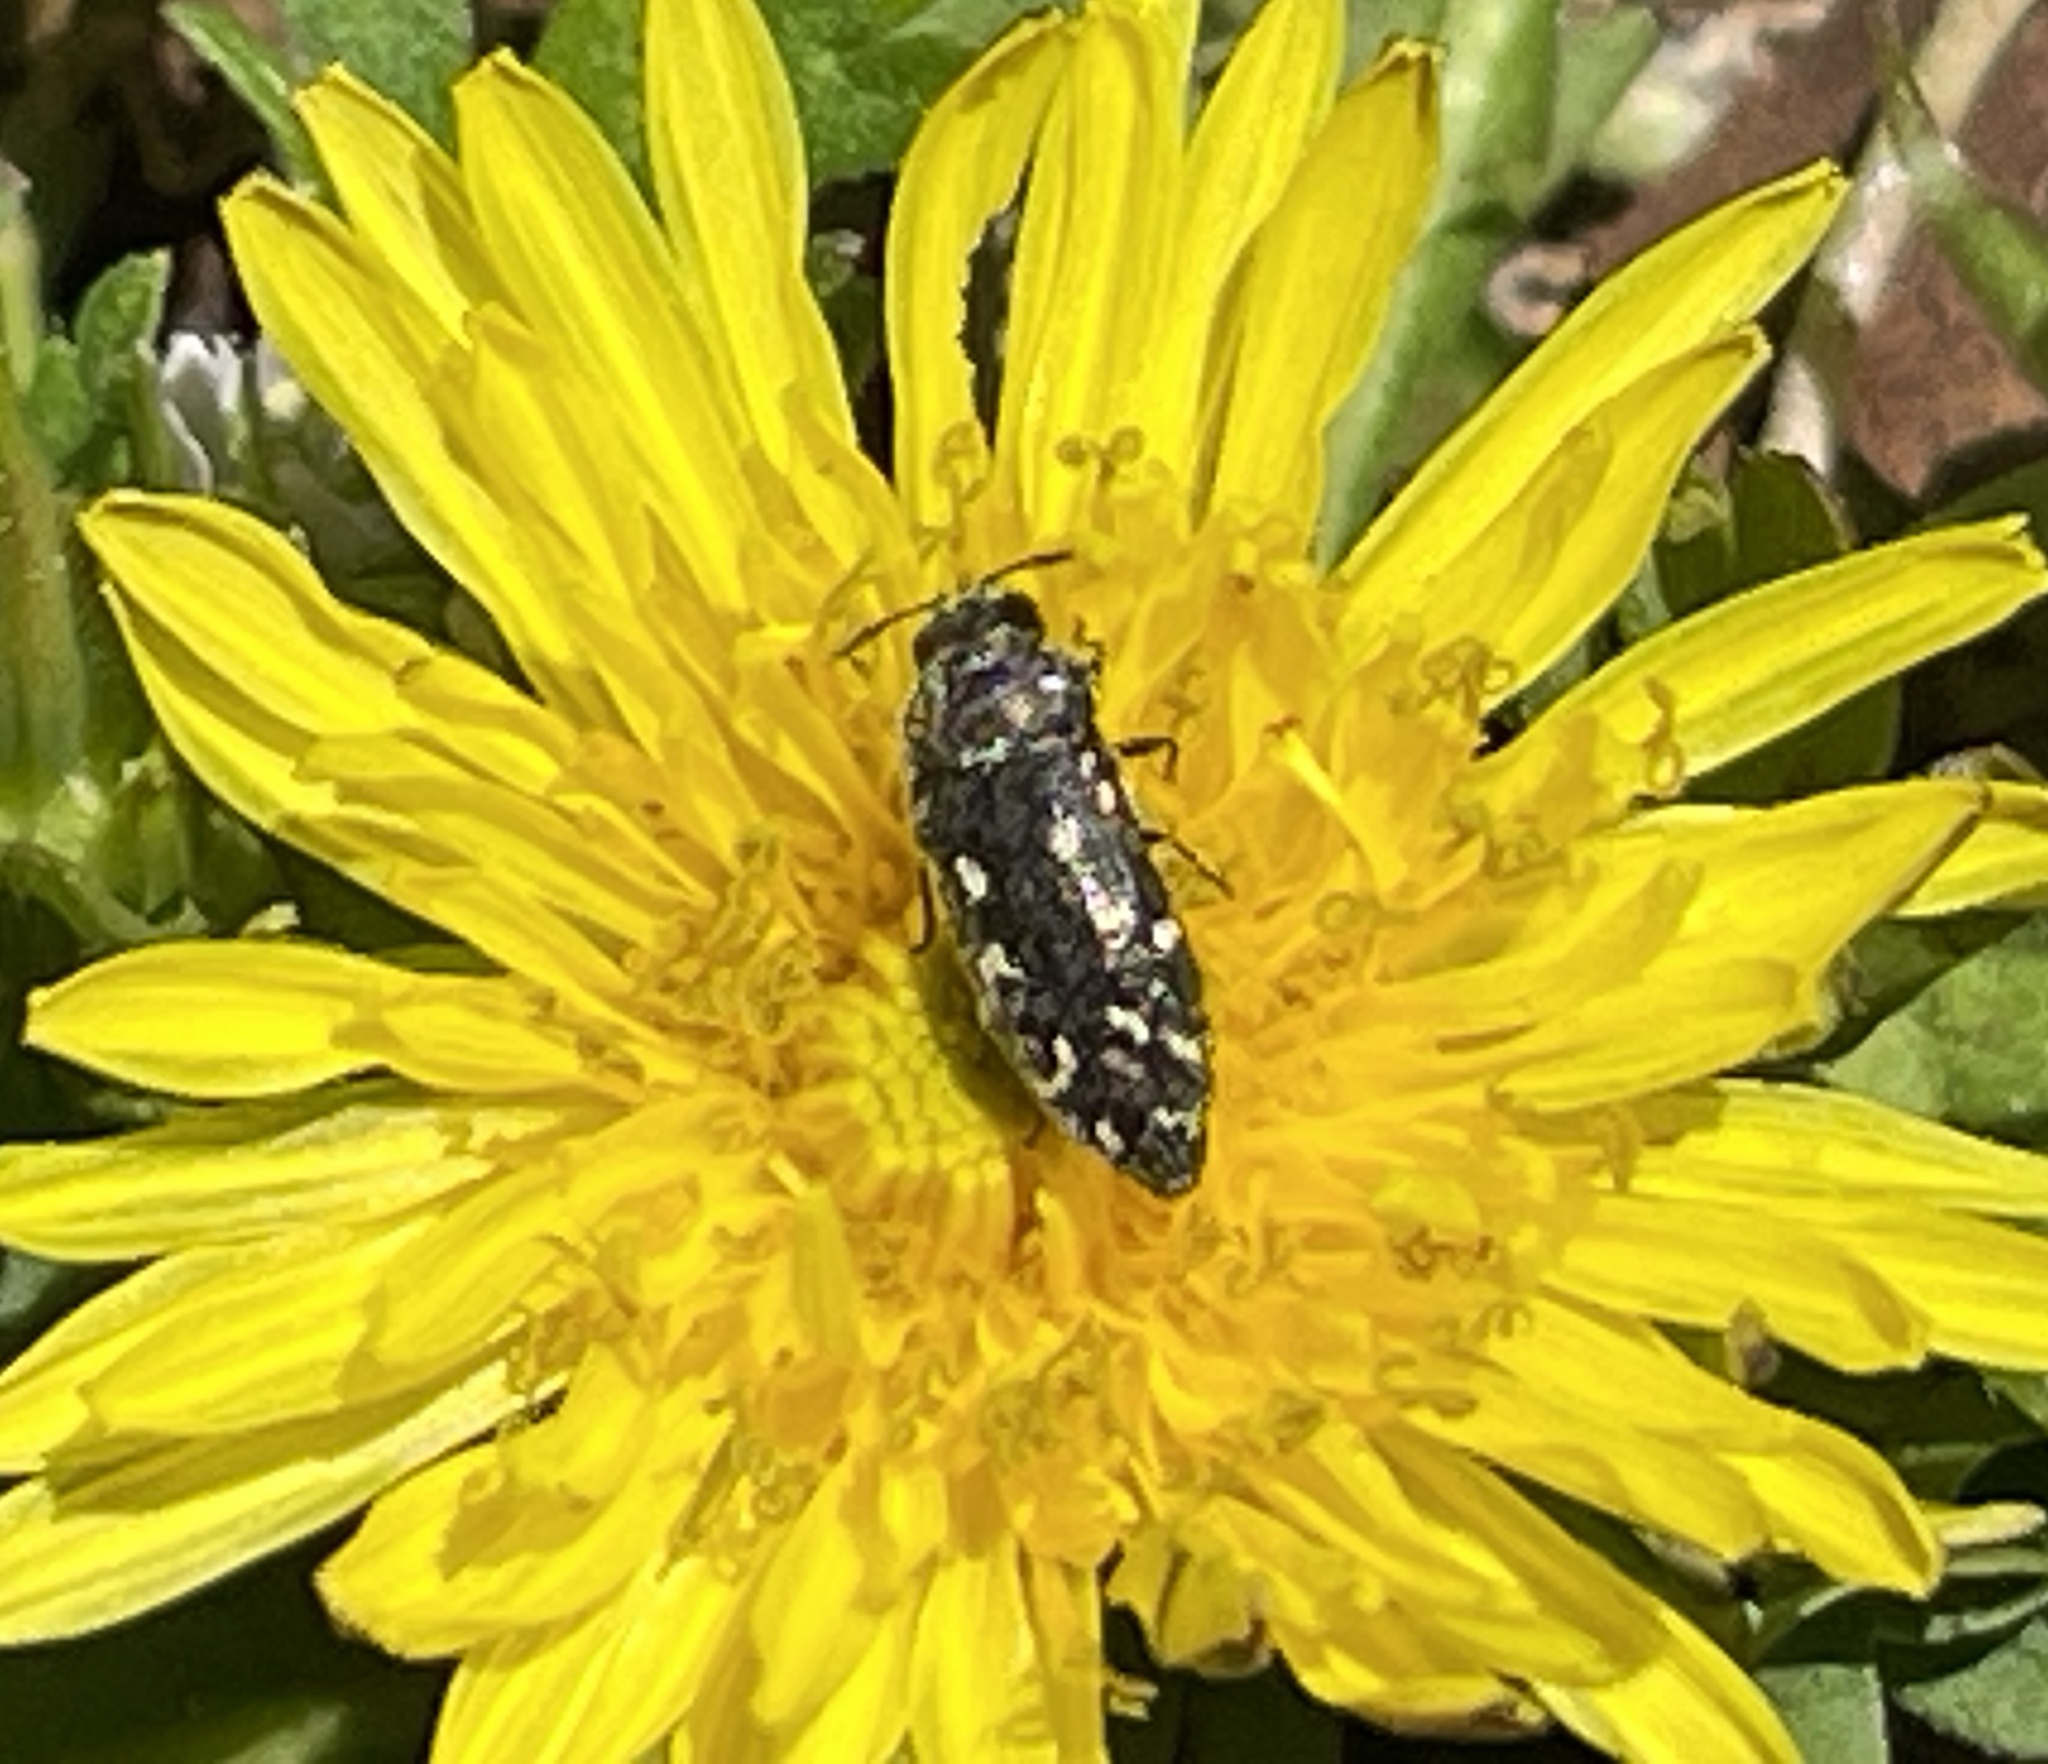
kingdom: Animalia
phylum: Arthropoda
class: Insecta
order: Coleoptera
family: Buprestidae
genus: Acmaeodera
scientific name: Acmaeodera tubulus
